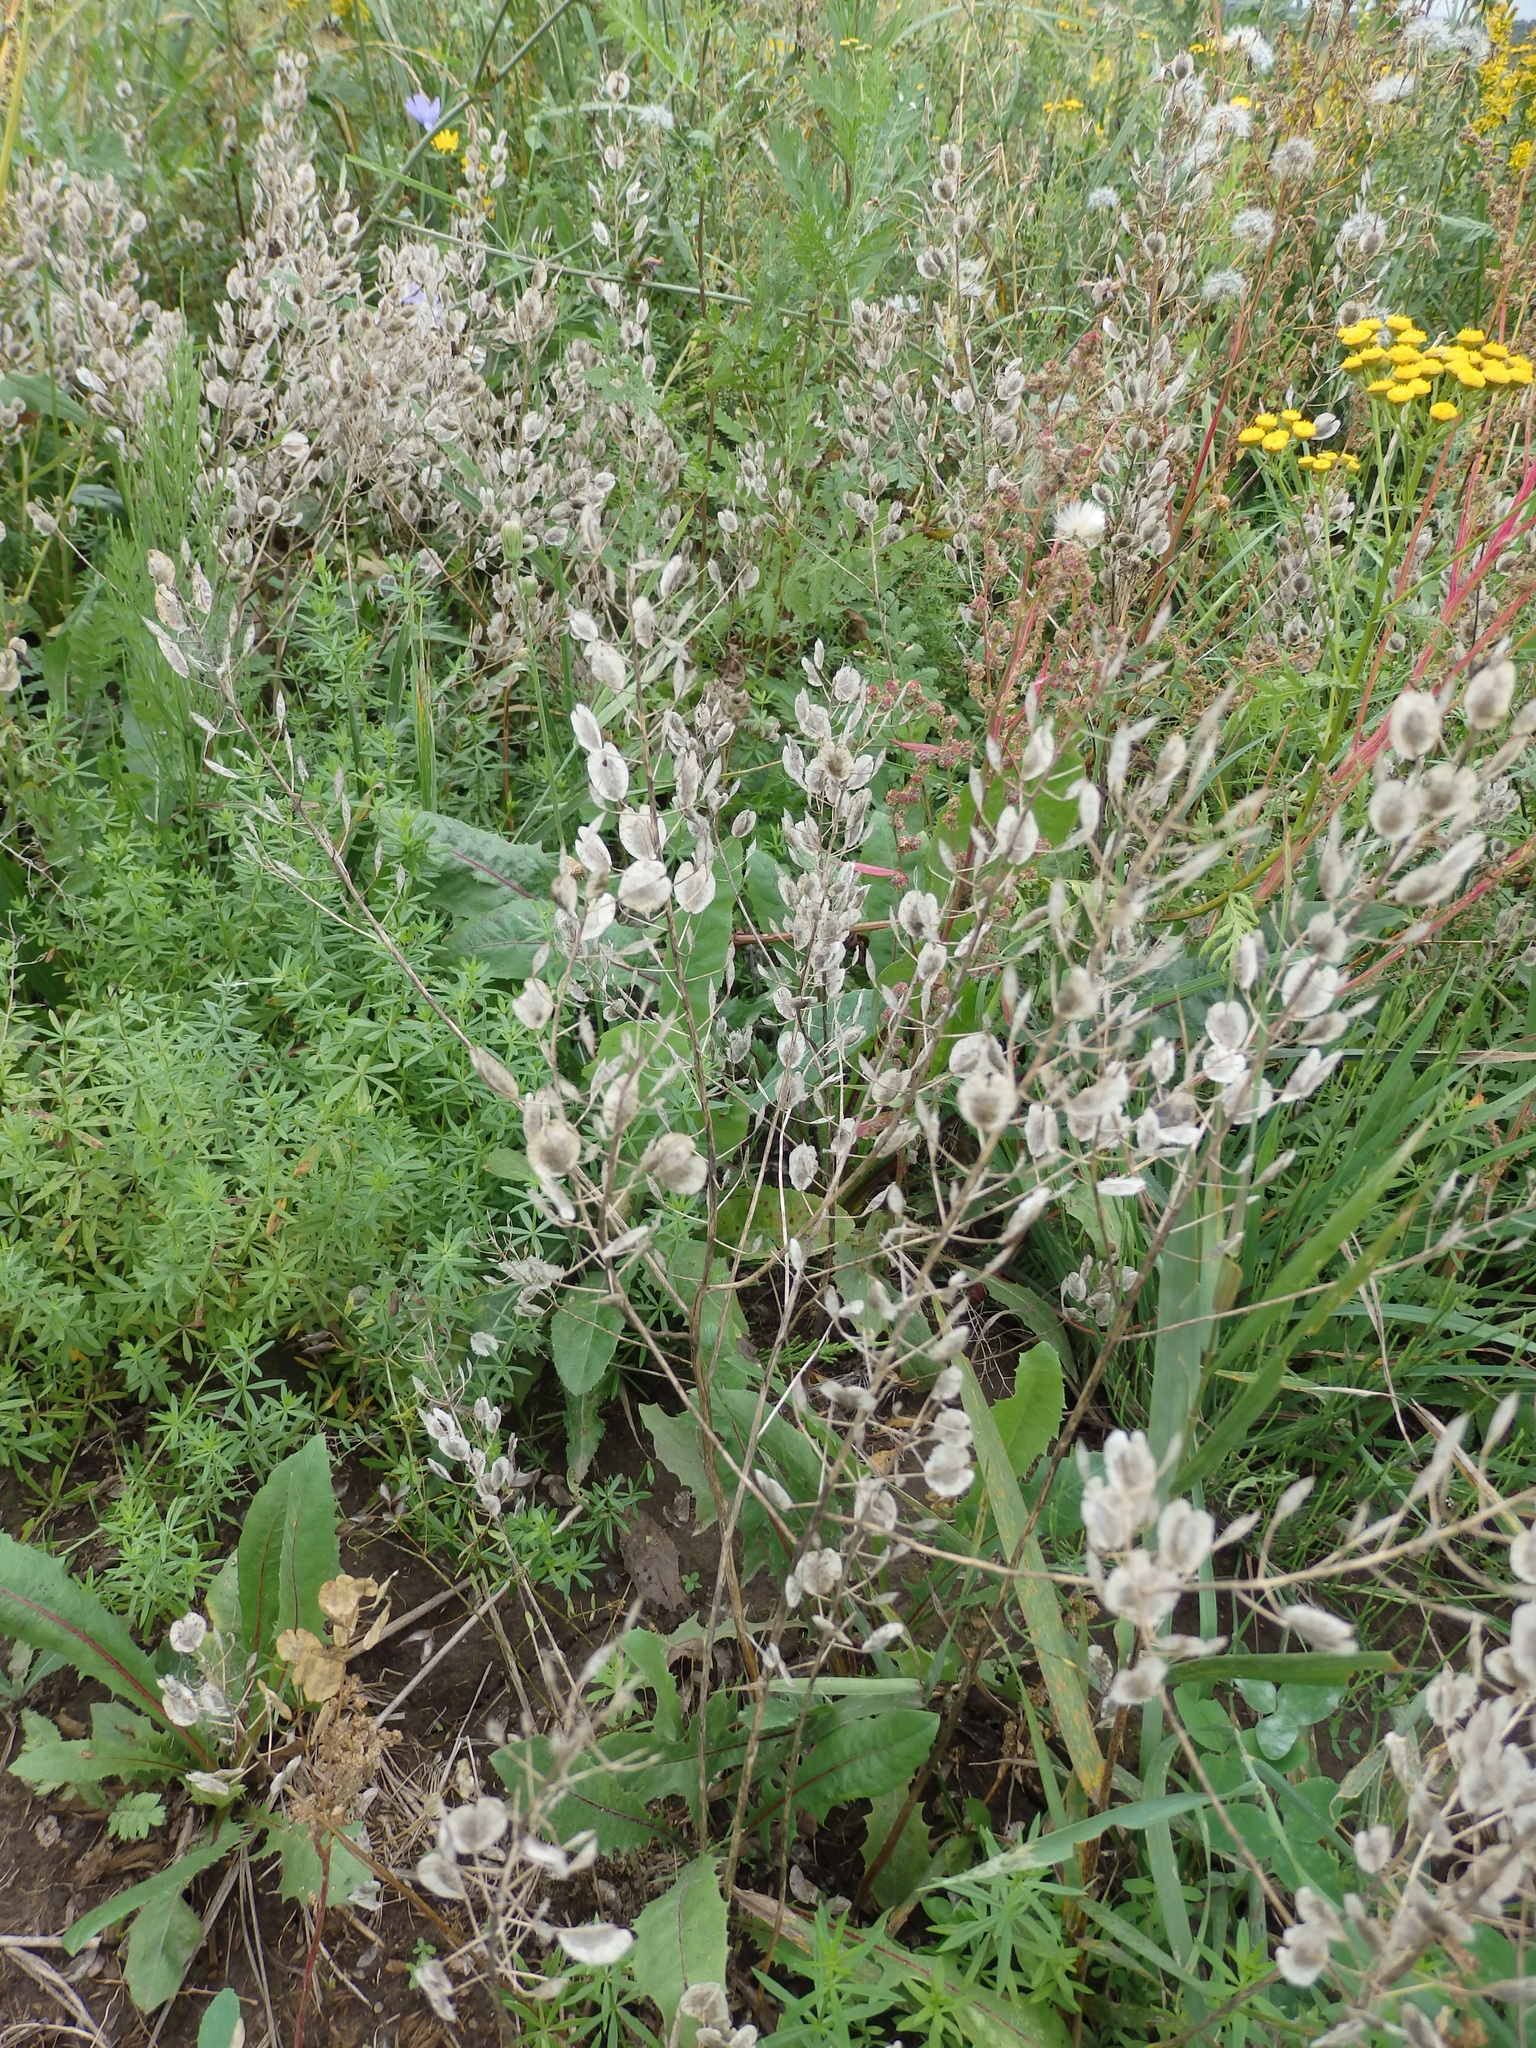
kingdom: Plantae
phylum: Tracheophyta
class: Magnoliopsida
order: Brassicales
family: Brassicaceae
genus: Thlaspi
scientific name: Thlaspi arvense
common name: Field pennycress
